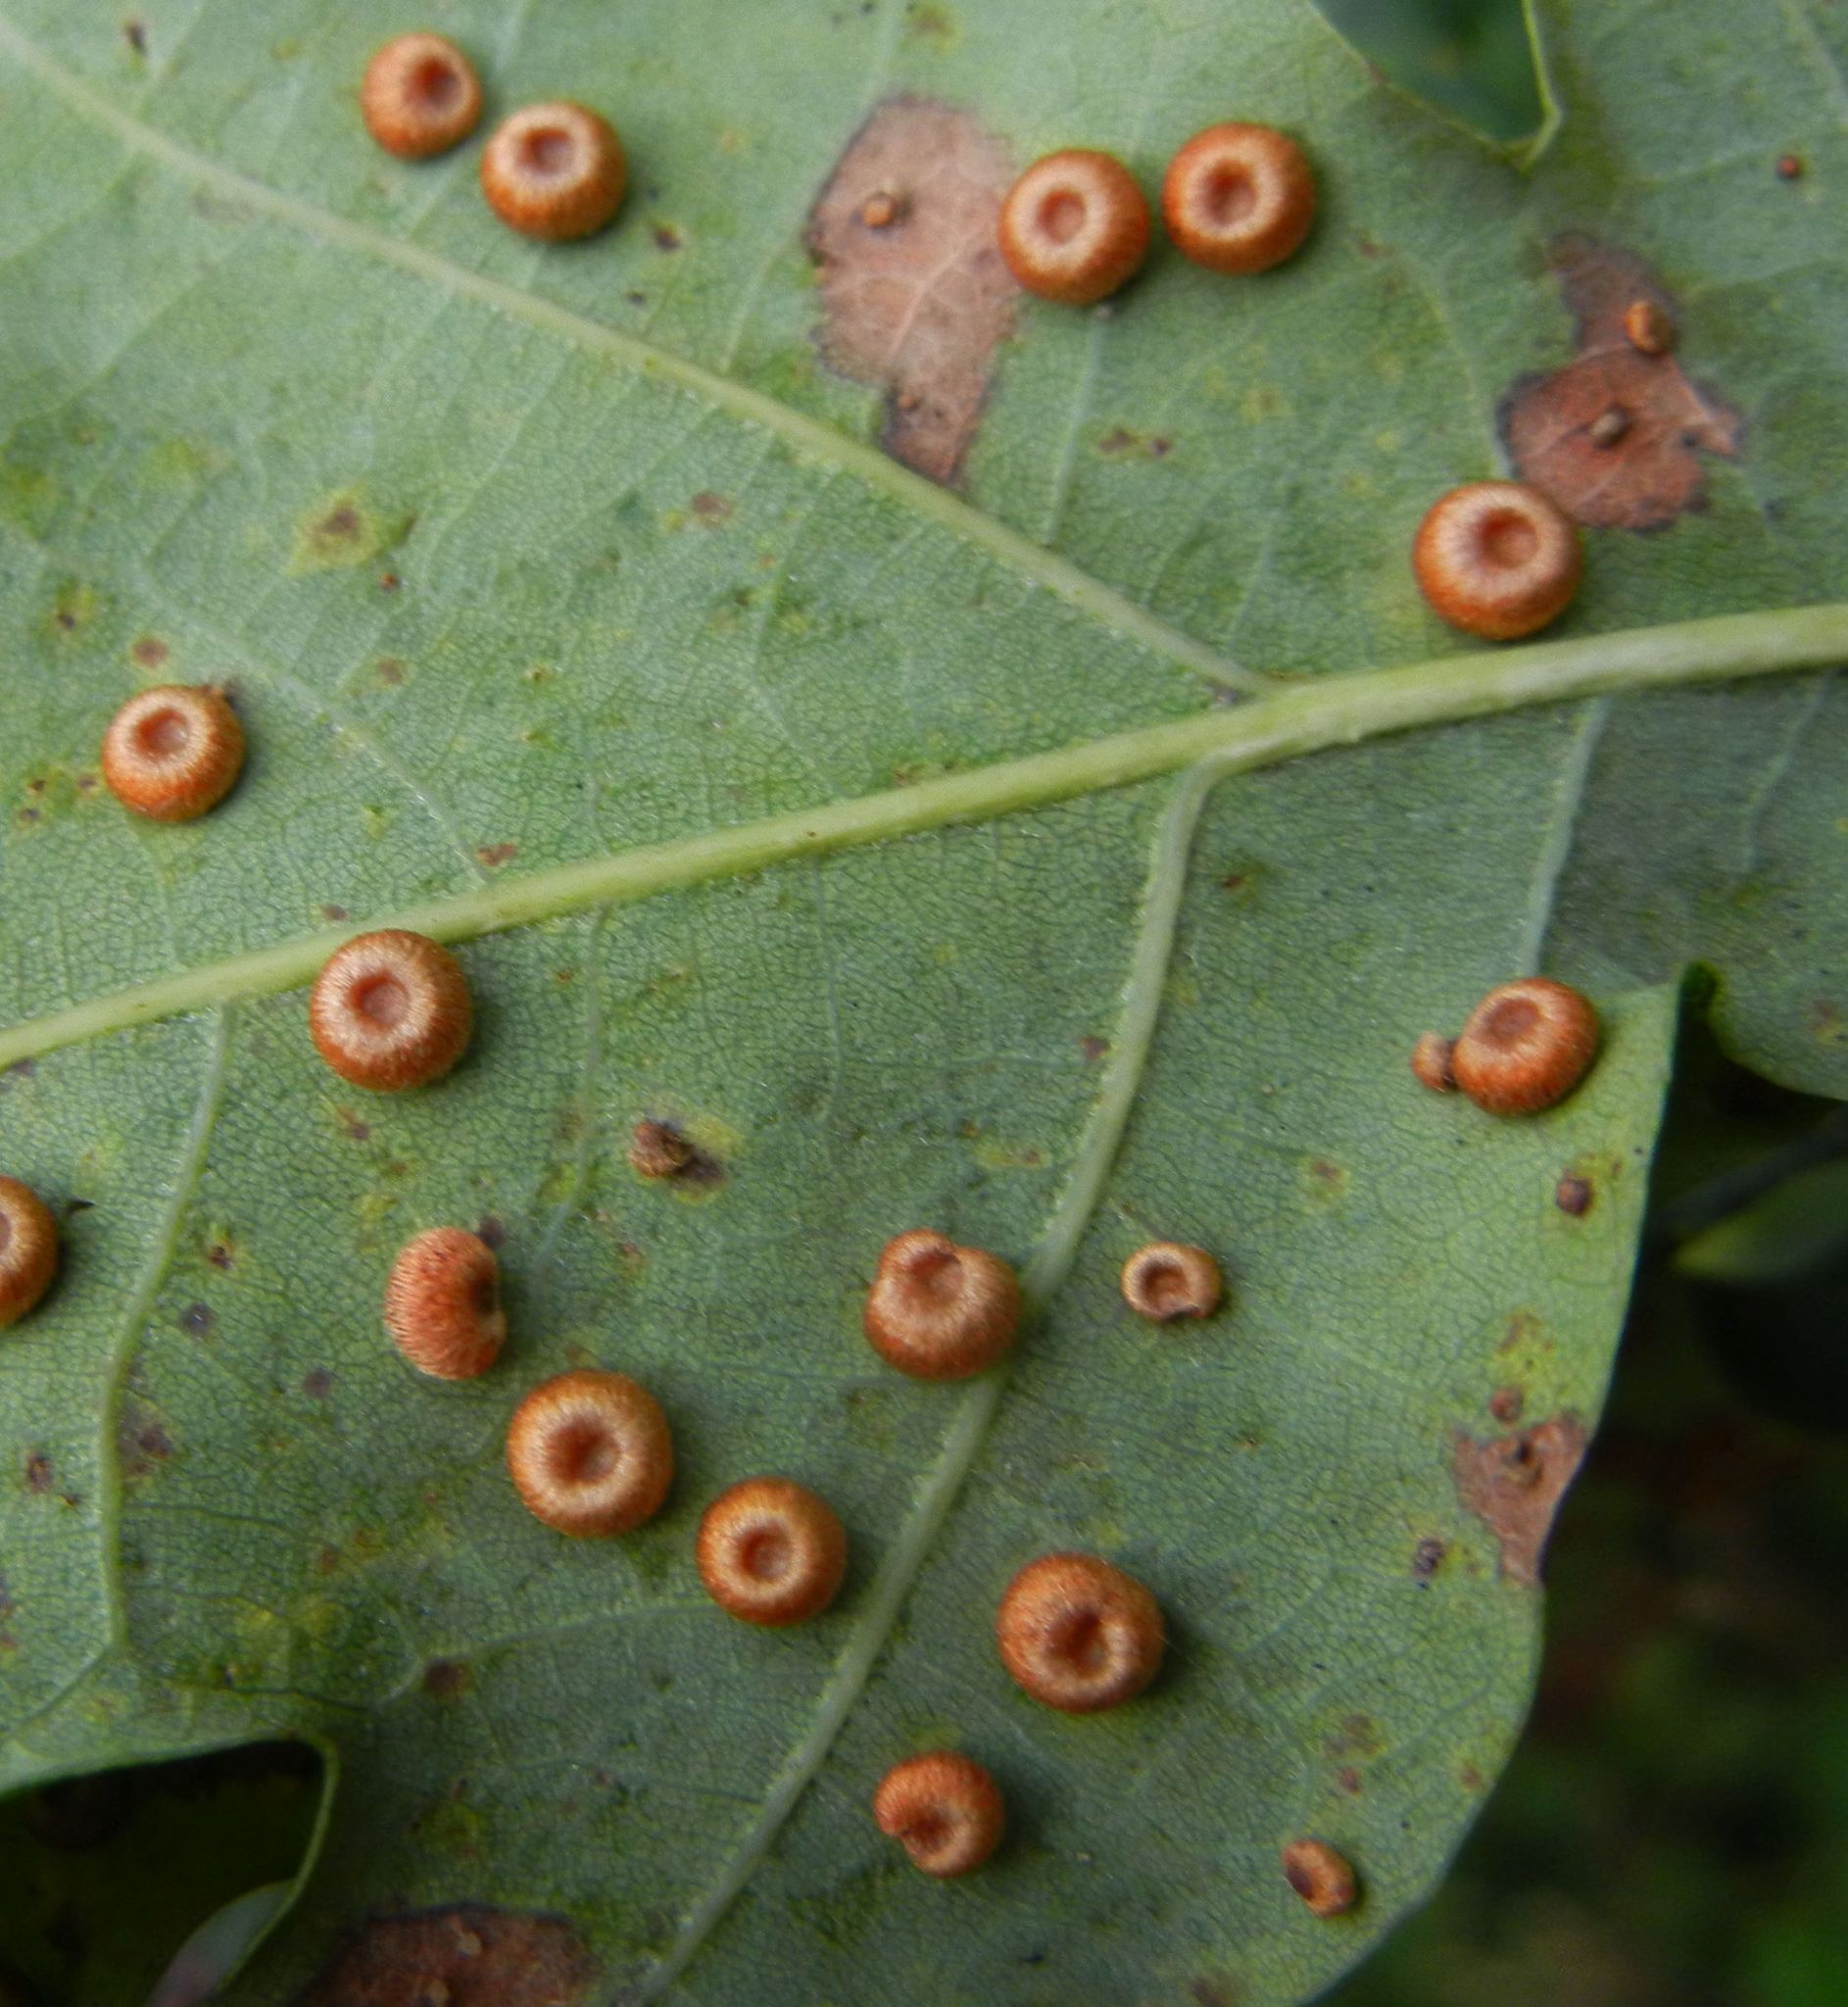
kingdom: Animalia
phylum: Arthropoda
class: Insecta
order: Hymenoptera
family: Cynipidae
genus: Neuroterus
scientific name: Neuroterus numismalis
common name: Silk-button spangle gall
